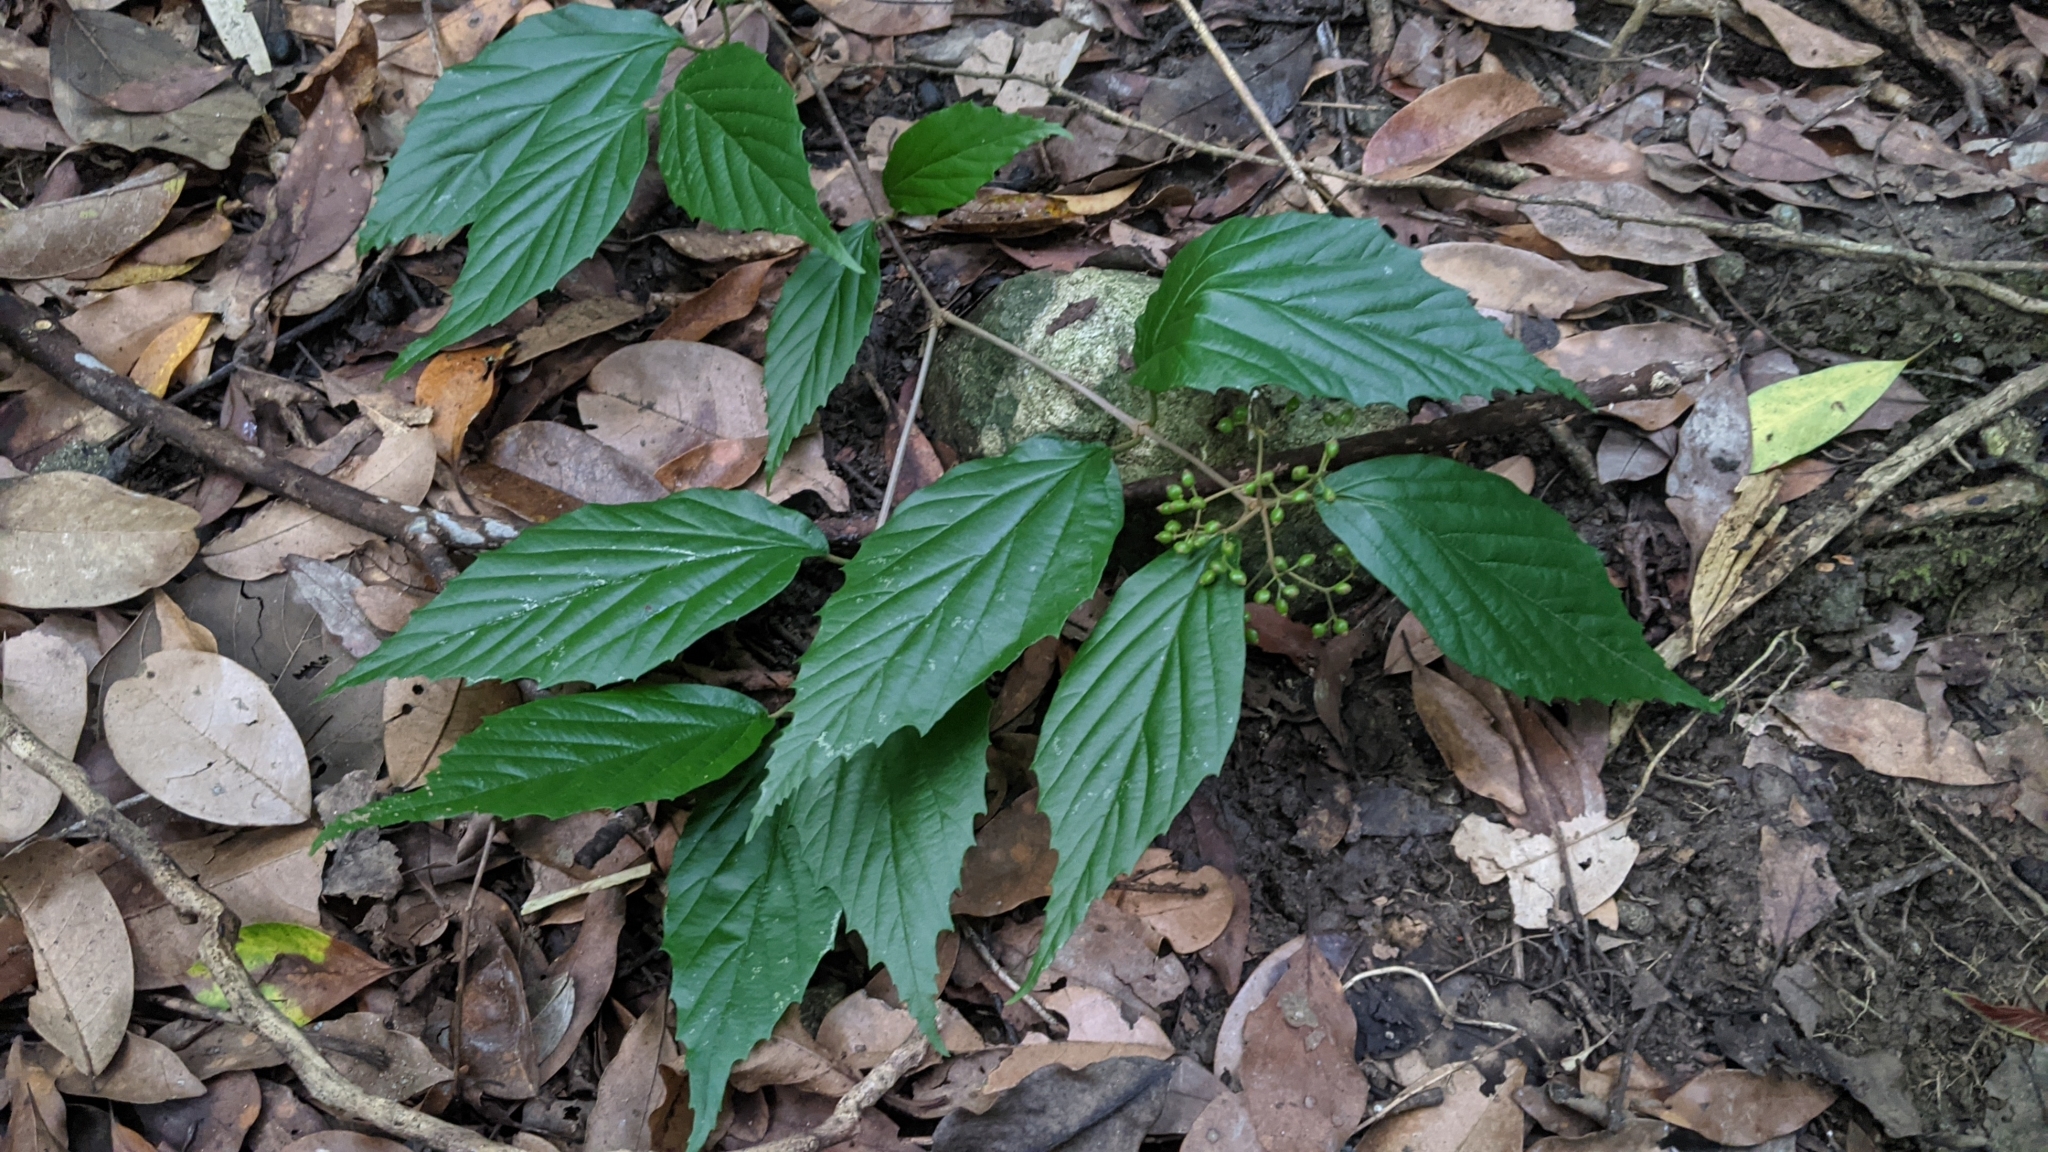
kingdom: Plantae
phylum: Tracheophyta
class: Magnoliopsida
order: Dipsacales
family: Viburnaceae
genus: Viburnum
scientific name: Viburnum luzonicum
